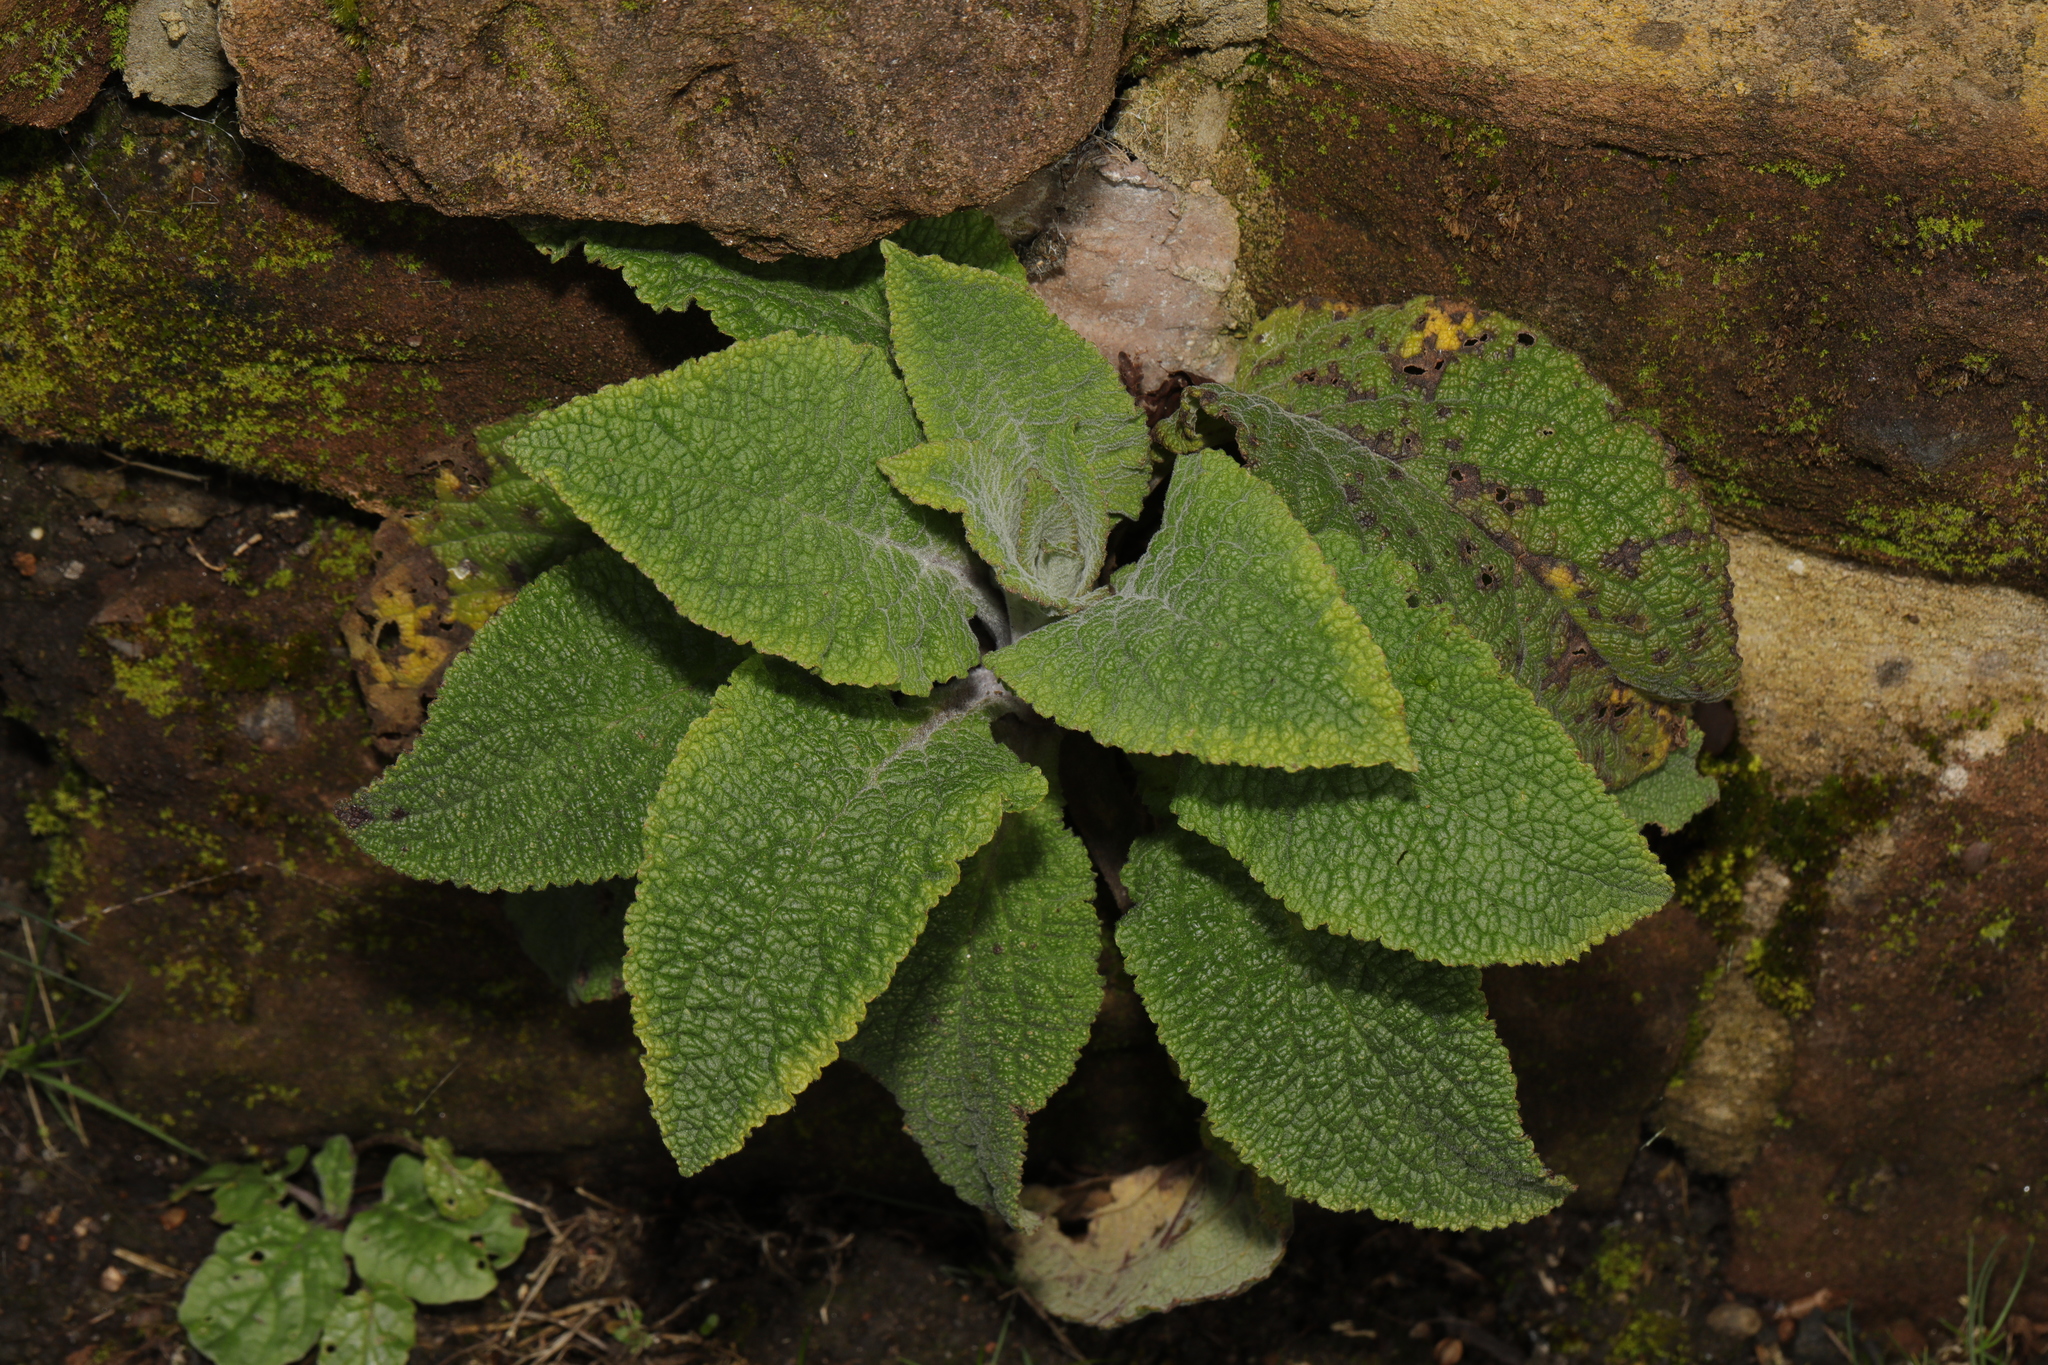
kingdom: Plantae
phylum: Tracheophyta
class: Magnoliopsida
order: Lamiales
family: Plantaginaceae
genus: Digitalis
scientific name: Digitalis purpurea
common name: Foxglove
